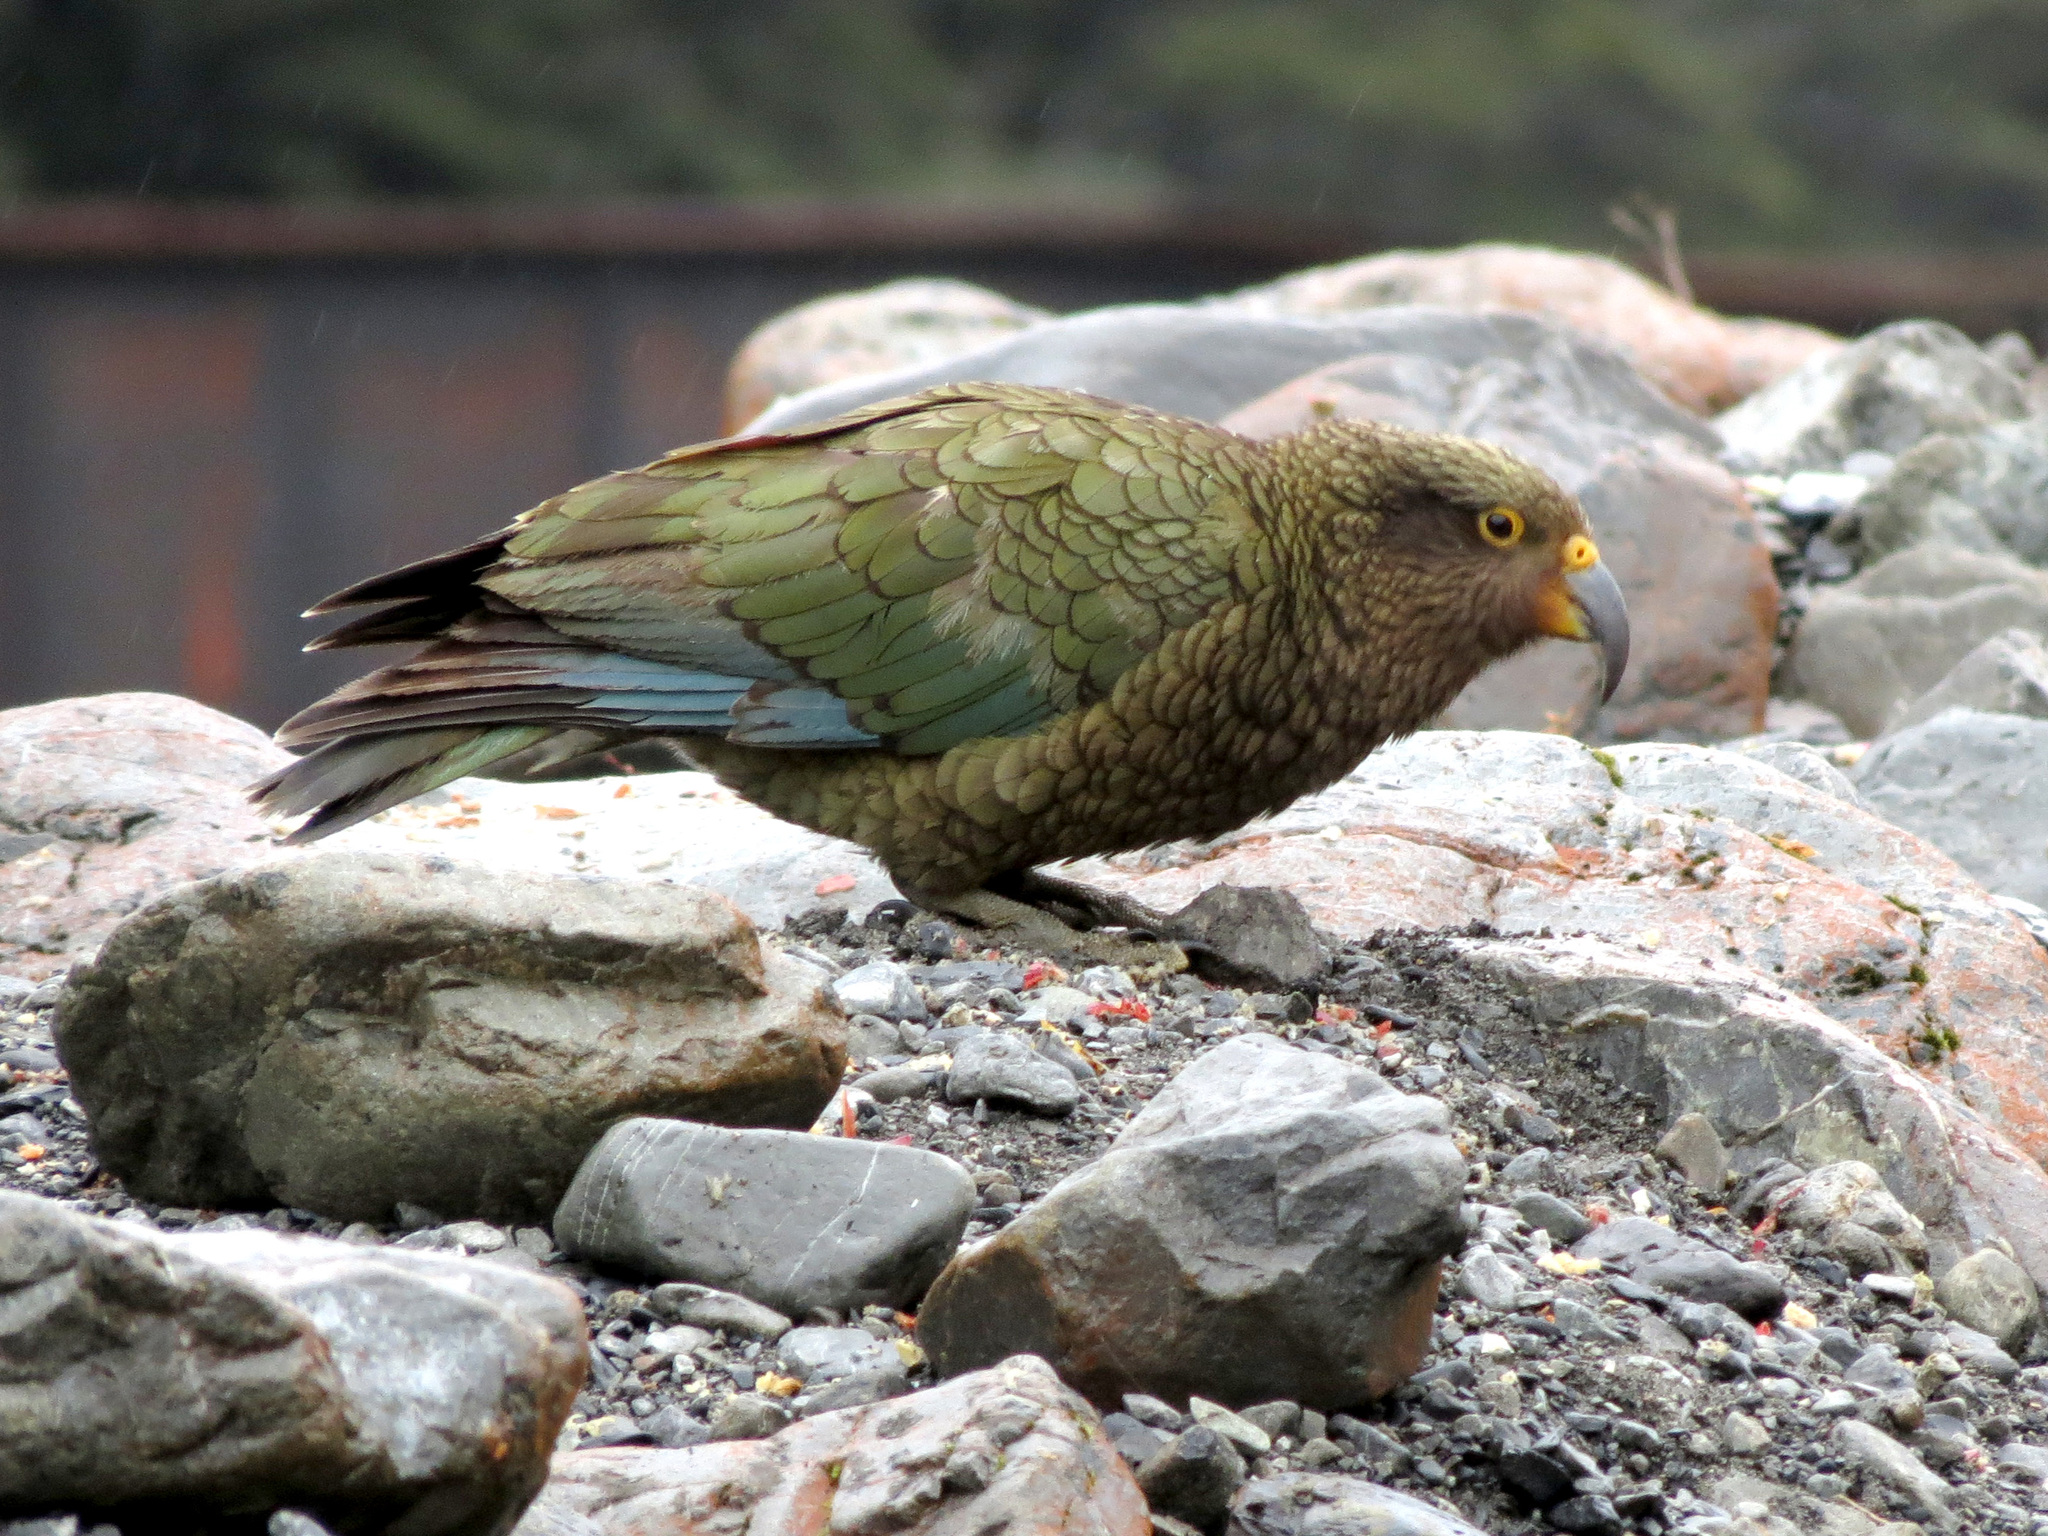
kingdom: Animalia
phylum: Chordata
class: Aves
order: Psittaciformes
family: Psittacidae
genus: Nestor
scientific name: Nestor notabilis
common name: Kea
